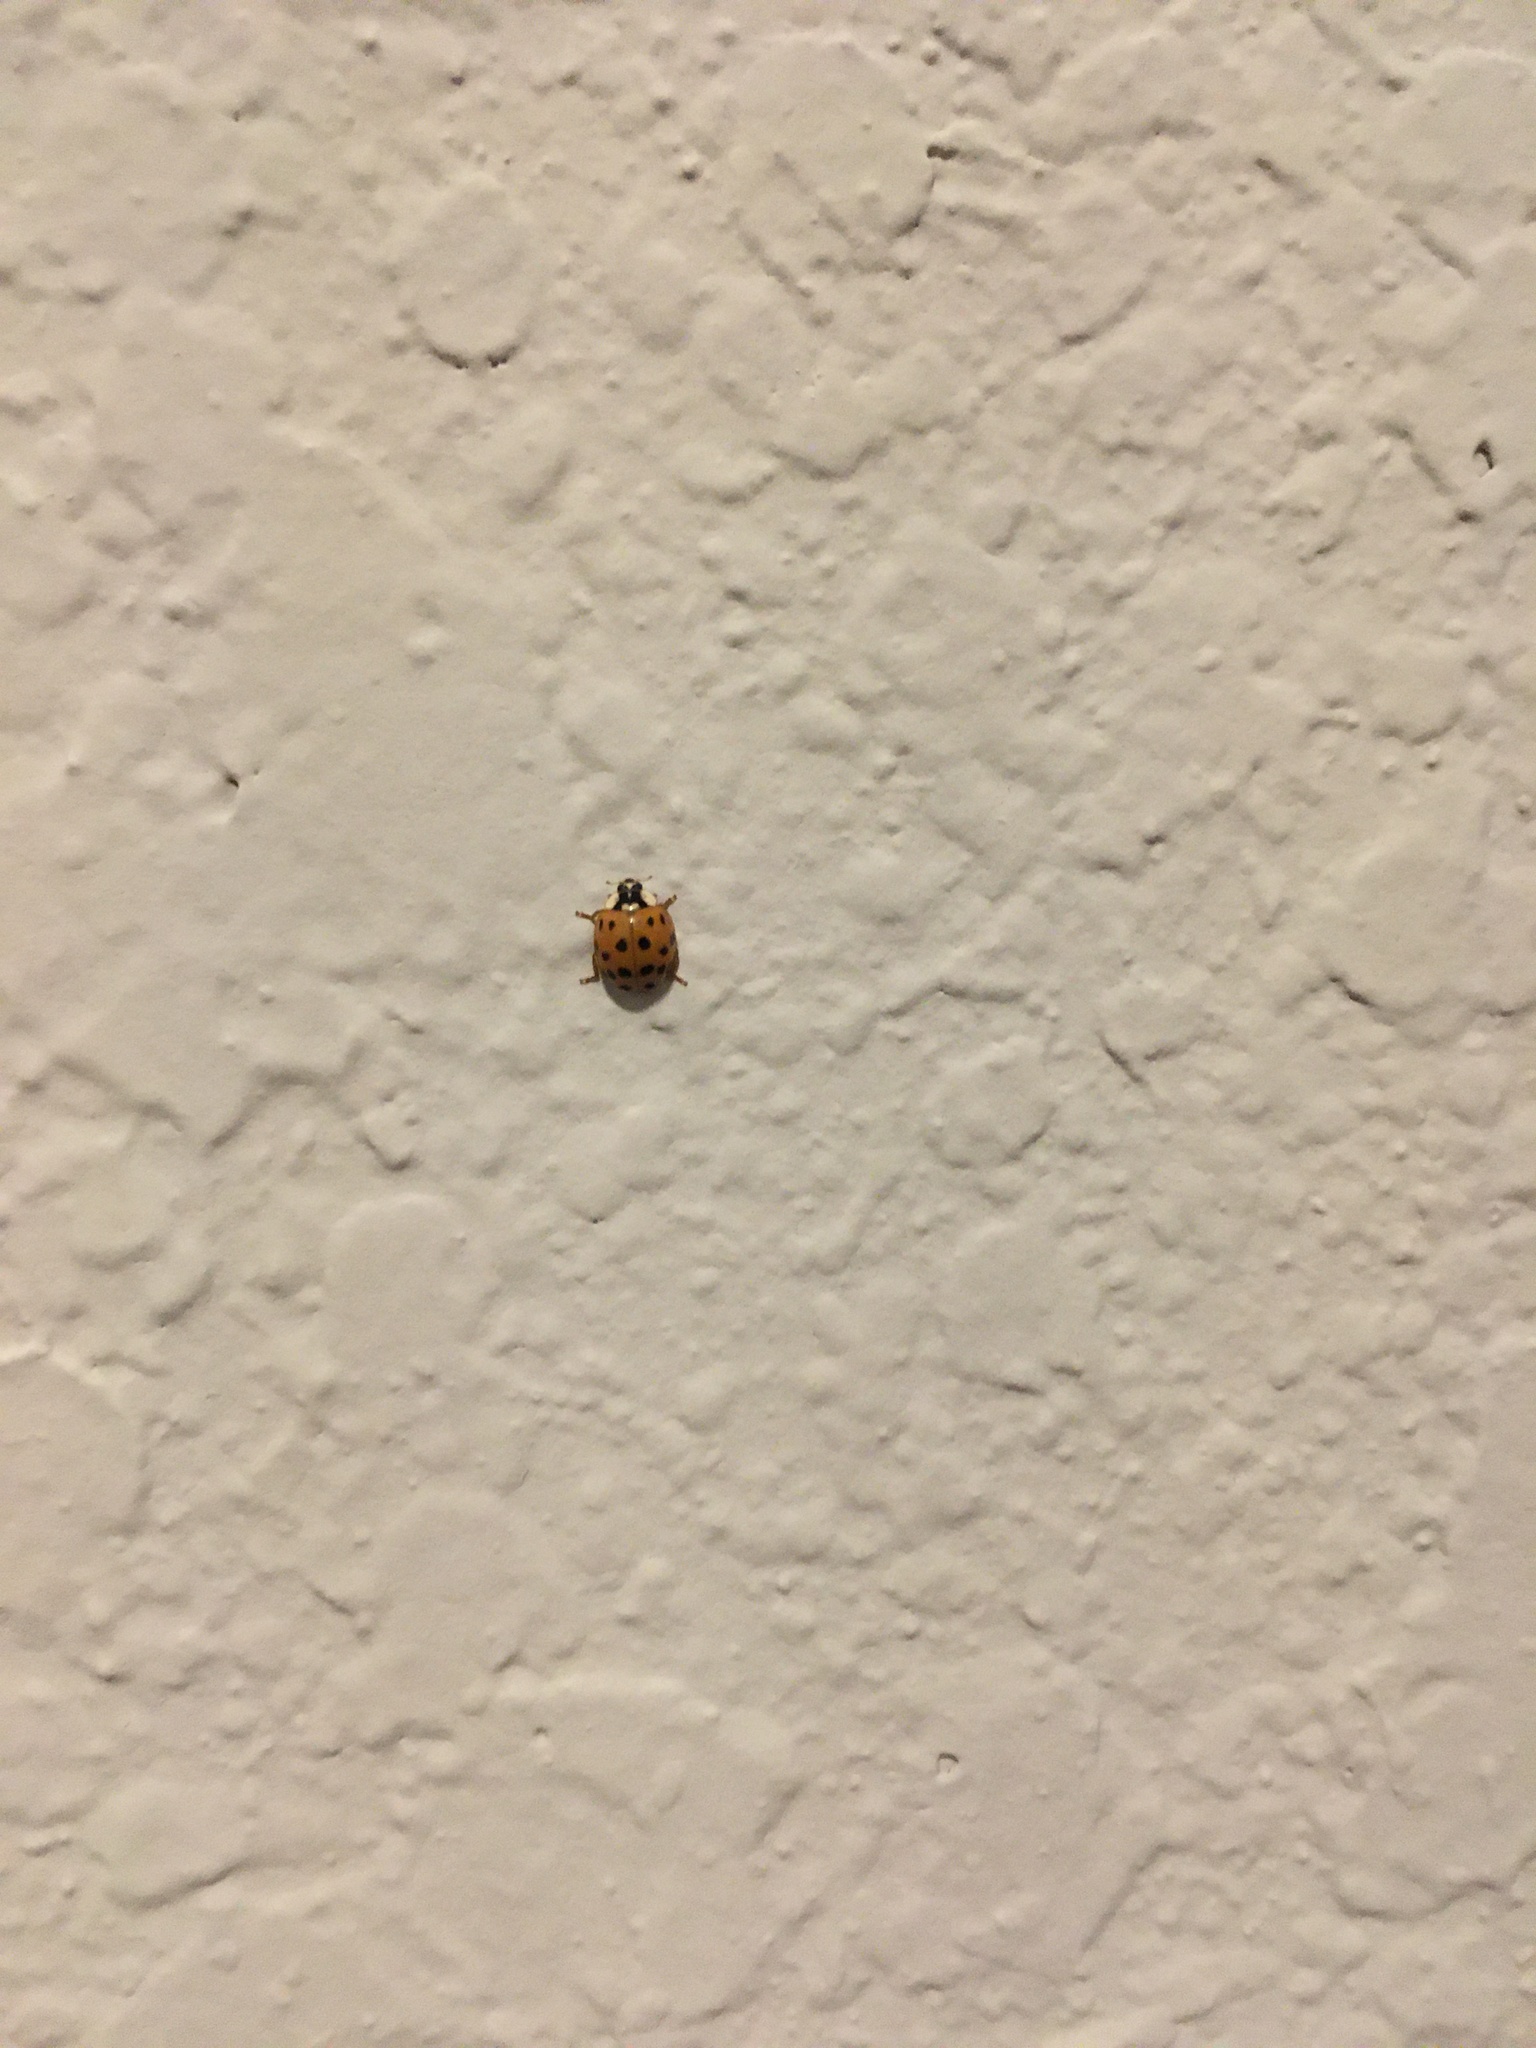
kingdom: Animalia
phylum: Arthropoda
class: Insecta
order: Coleoptera
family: Coccinellidae
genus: Harmonia
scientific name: Harmonia axyridis
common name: Harlequin ladybird
